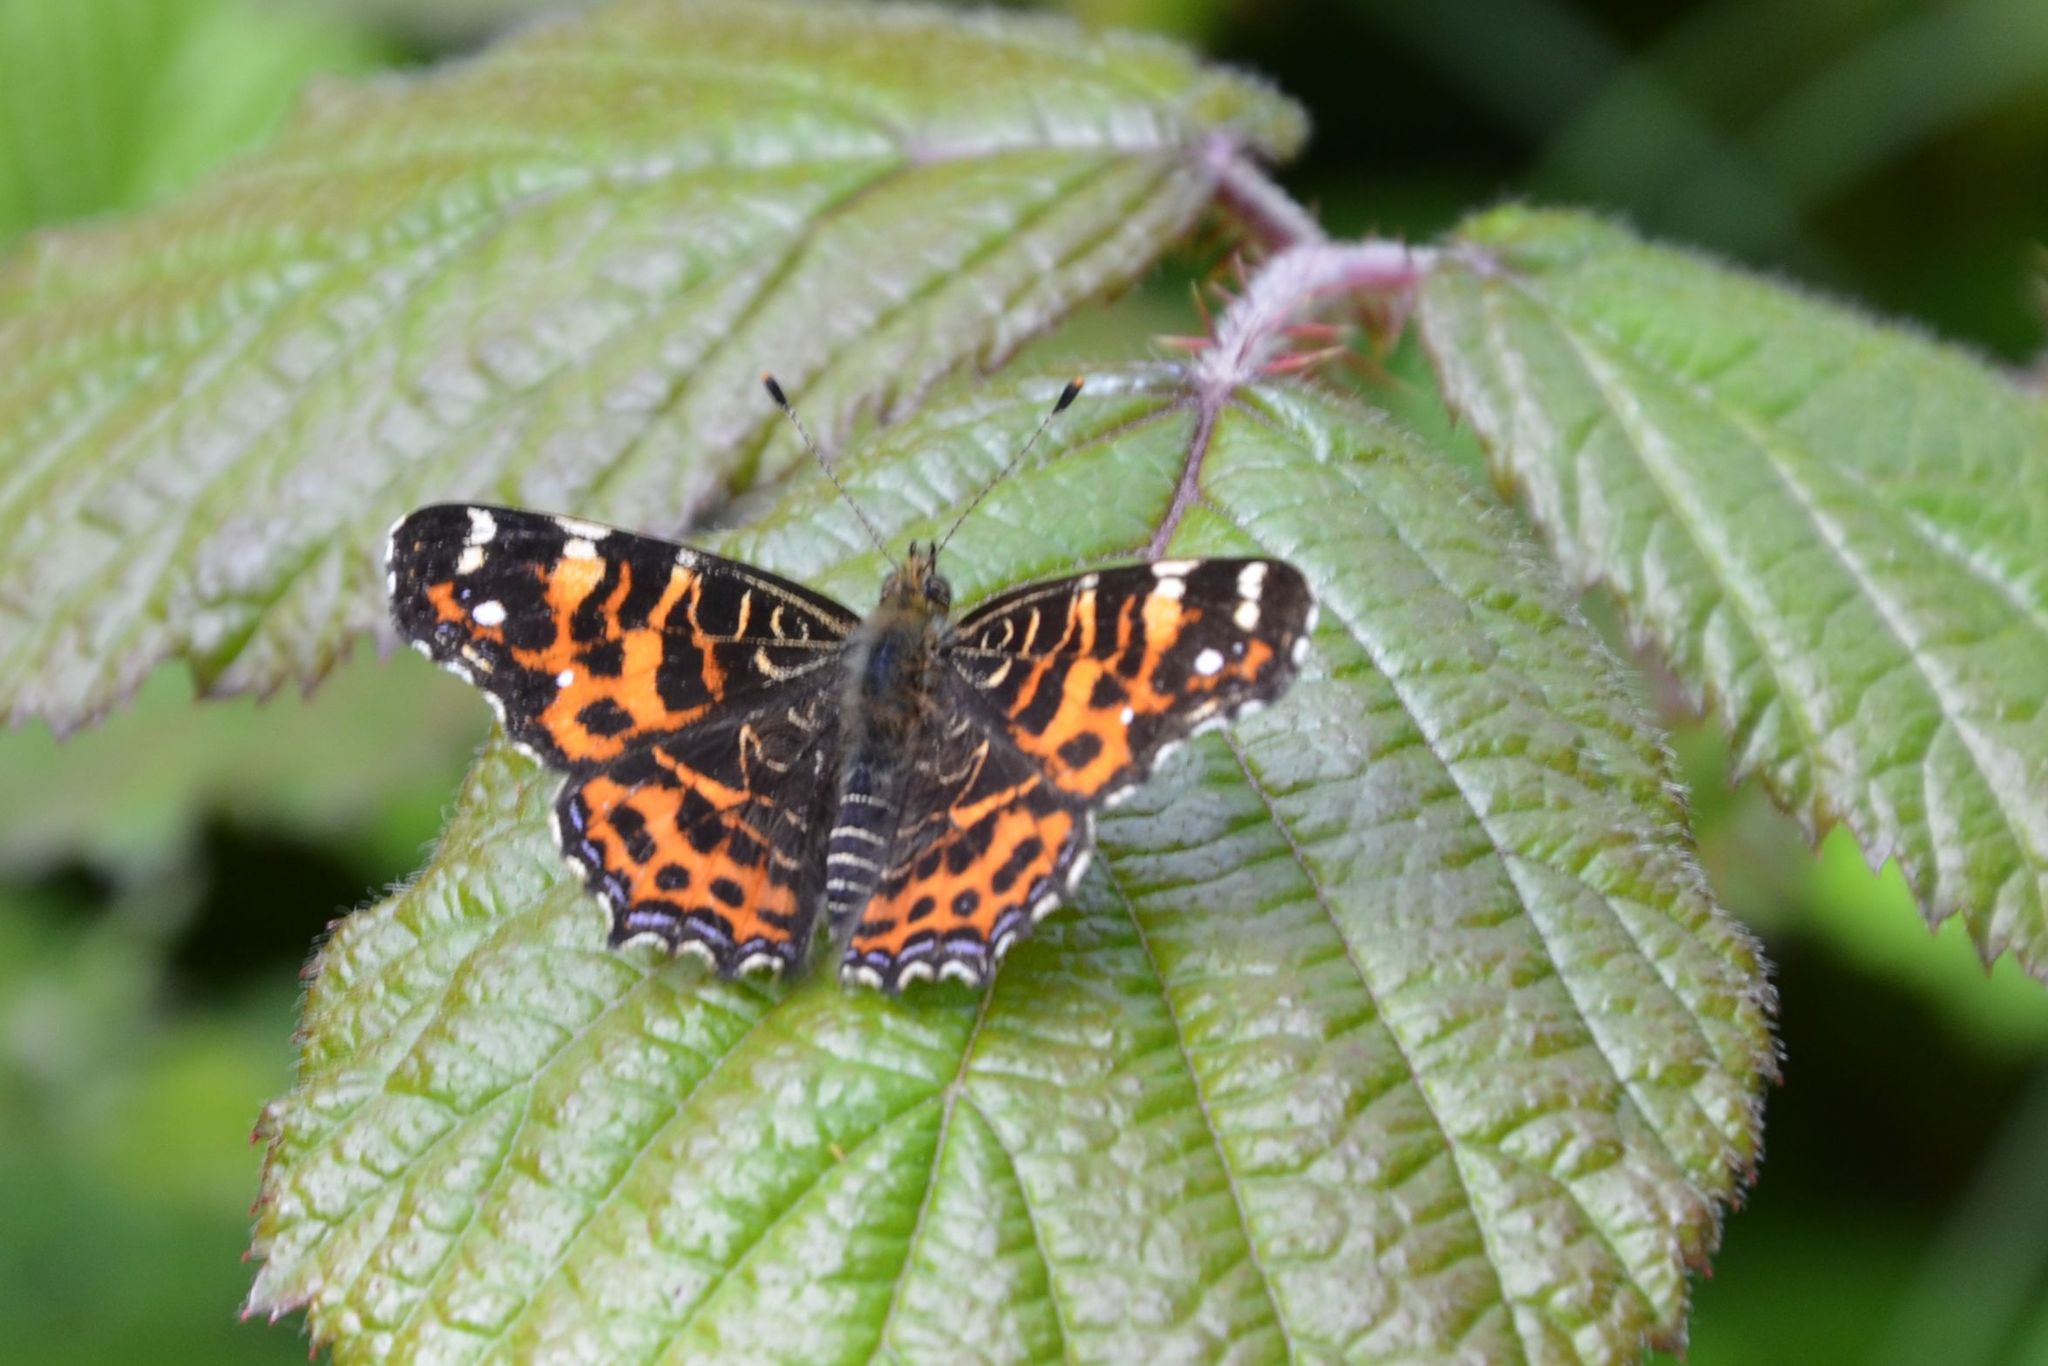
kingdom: Animalia
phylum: Arthropoda
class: Insecta
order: Lepidoptera
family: Nymphalidae
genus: Araschnia
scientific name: Araschnia levana
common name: Map butterfly
